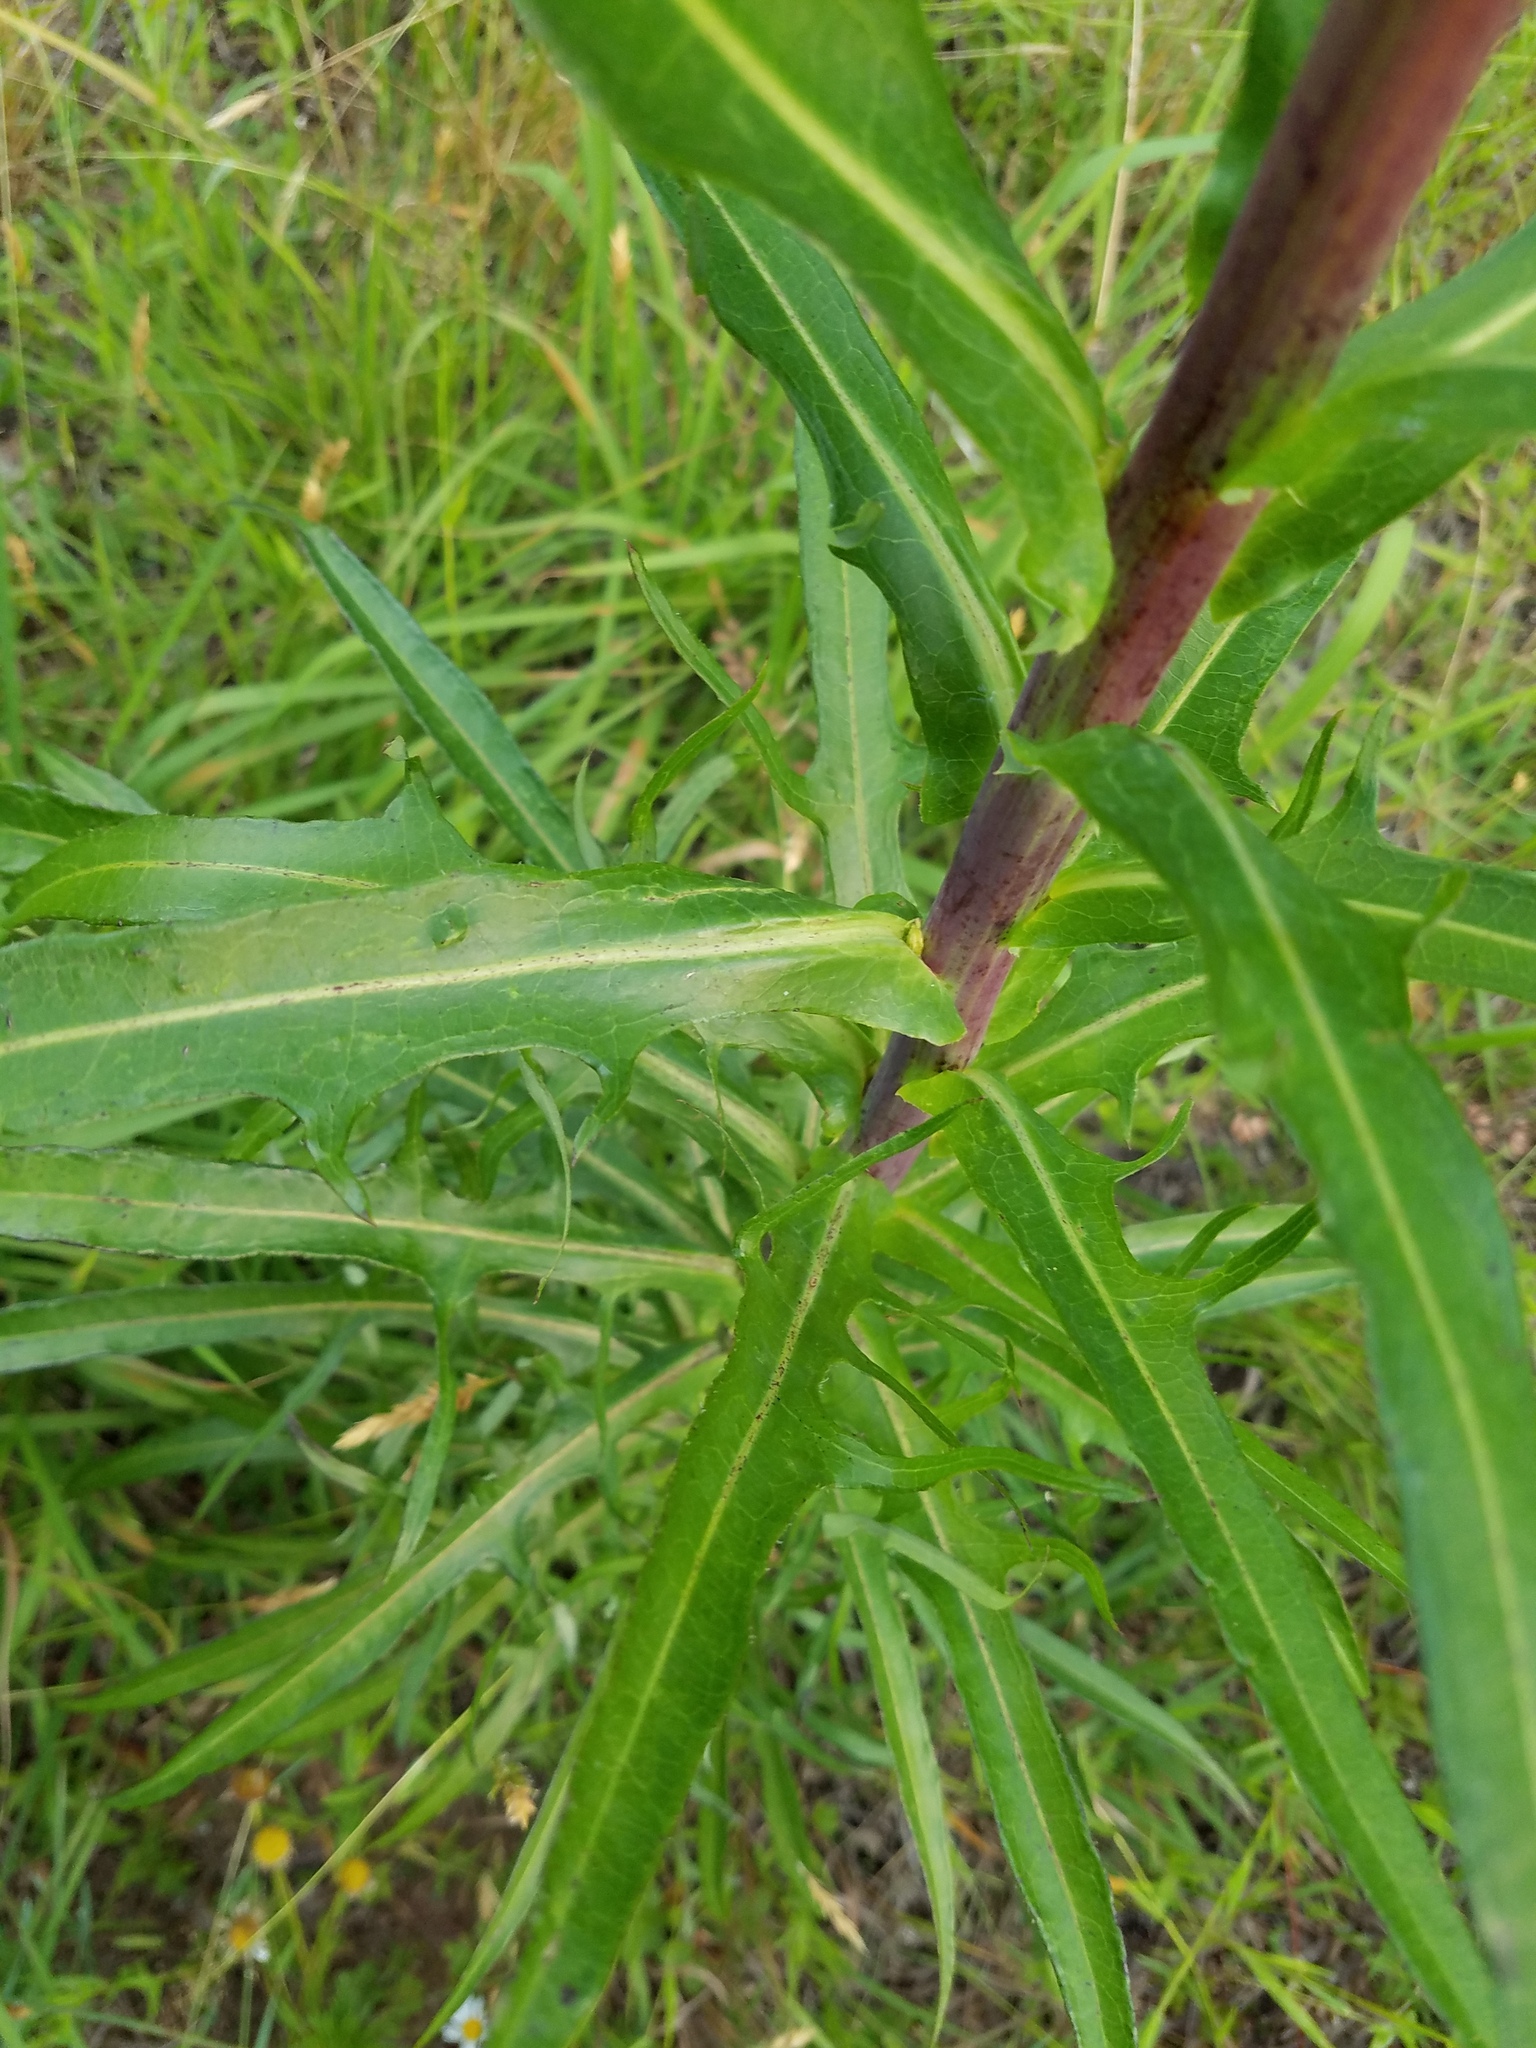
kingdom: Plantae
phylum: Tracheophyta
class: Magnoliopsida
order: Asterales
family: Asteraceae
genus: Lactuca
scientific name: Lactuca canadensis
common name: Canada lettuce
